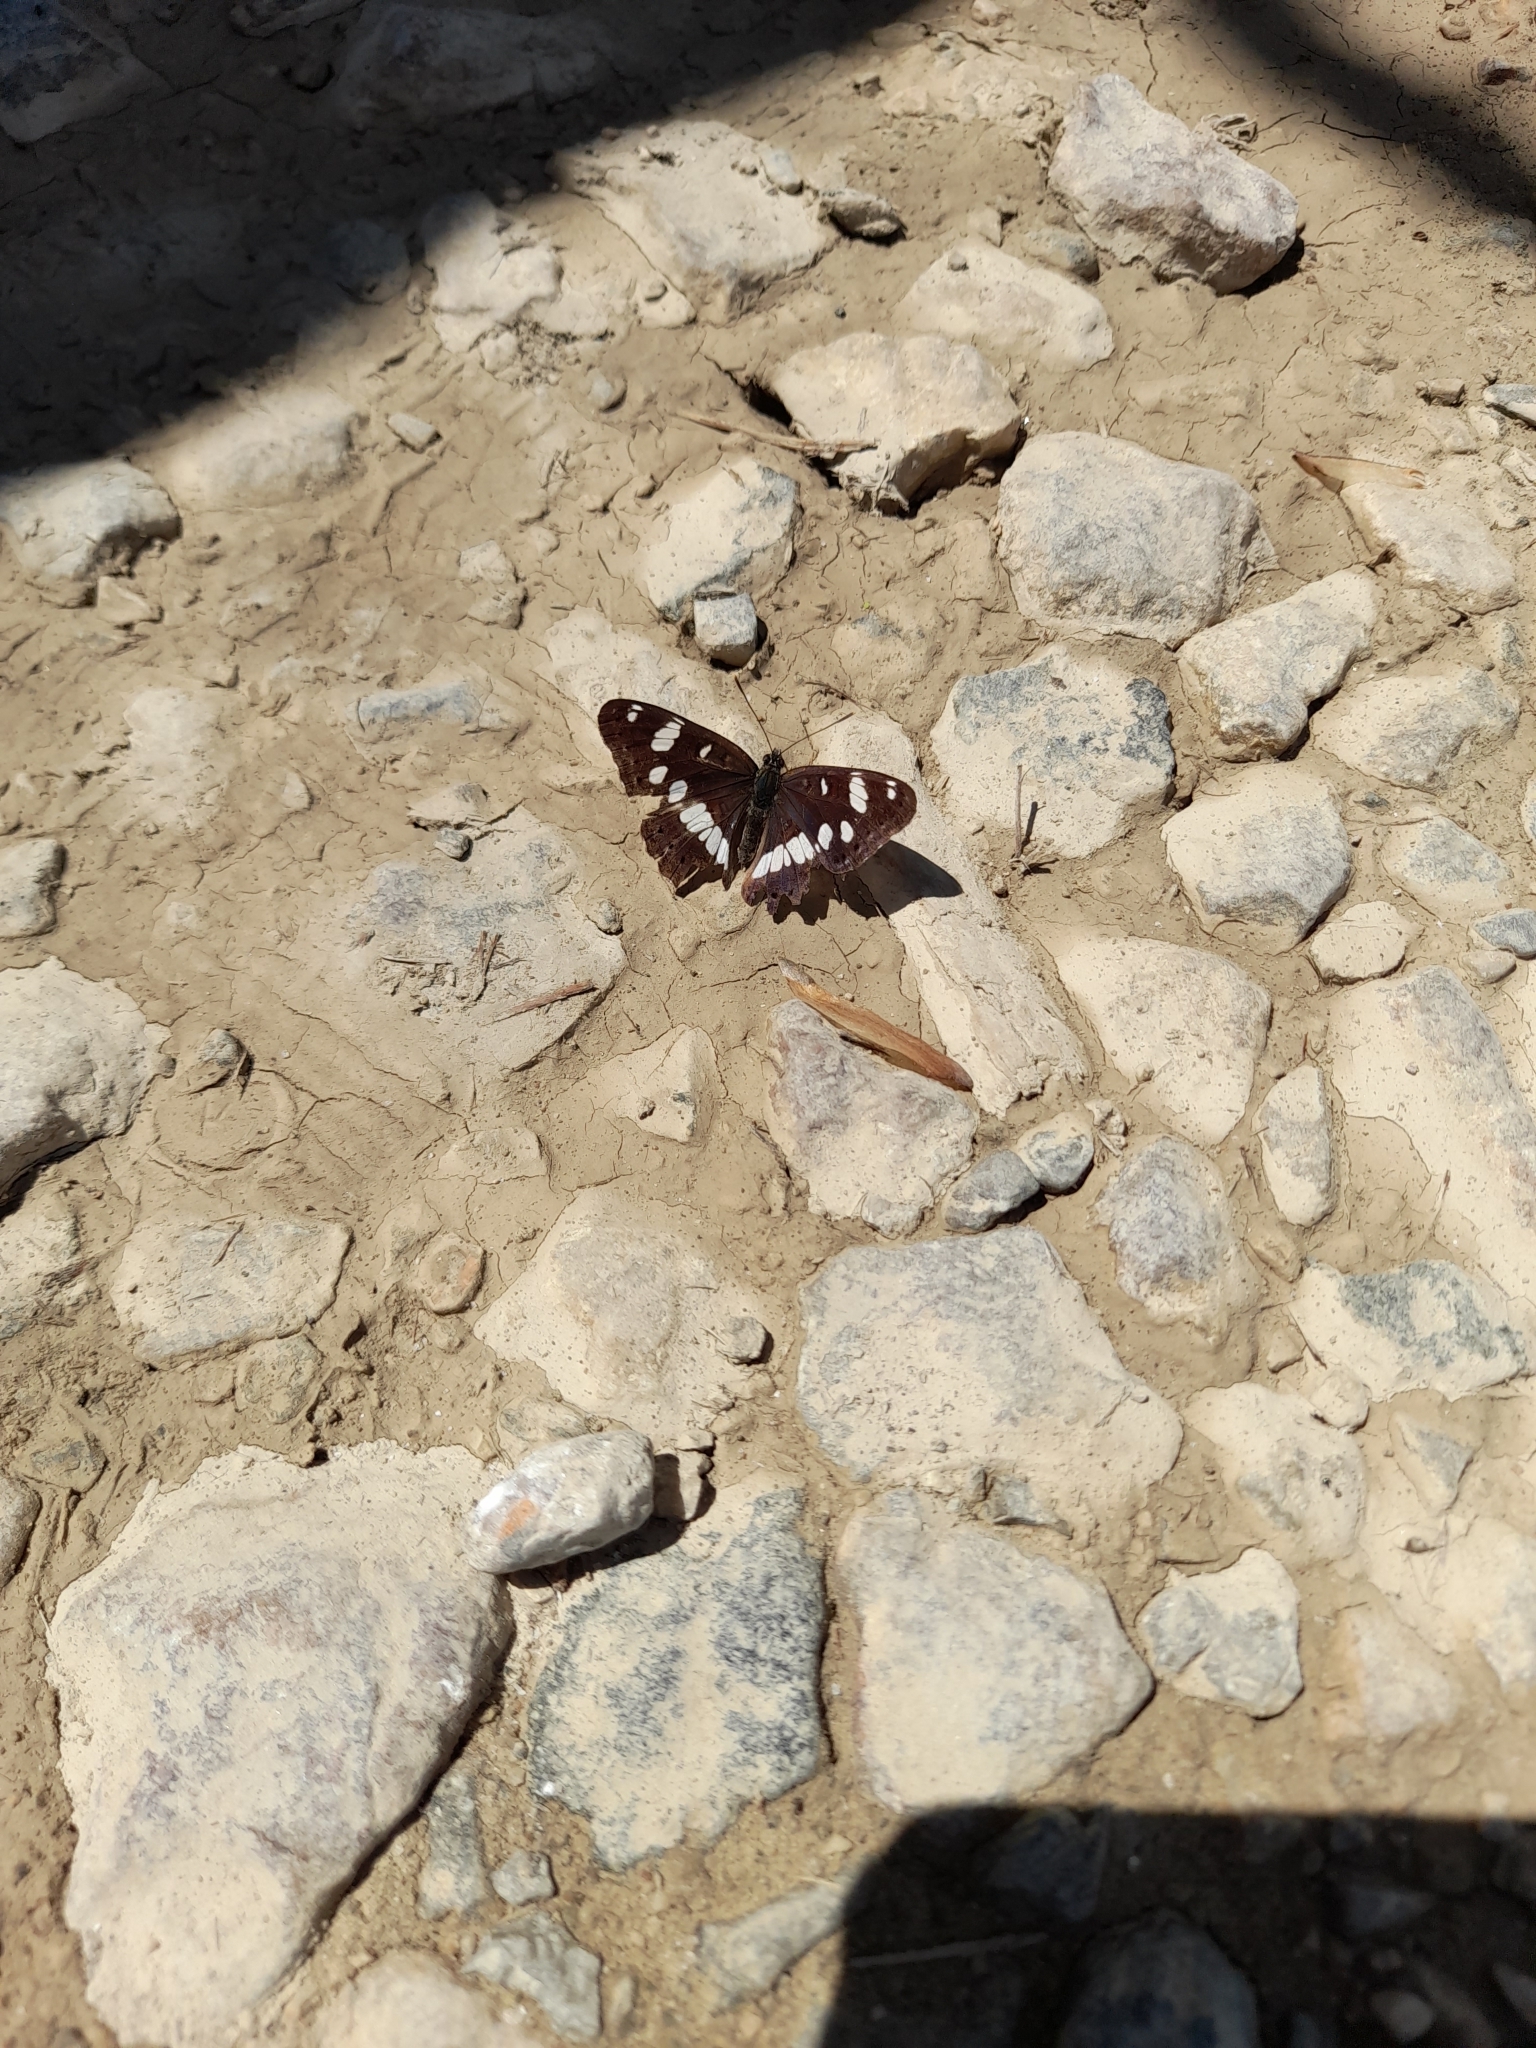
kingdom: Animalia
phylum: Arthropoda
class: Insecta
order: Lepidoptera
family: Nymphalidae
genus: Limenitis
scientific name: Limenitis reducta
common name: Southern white admiral
